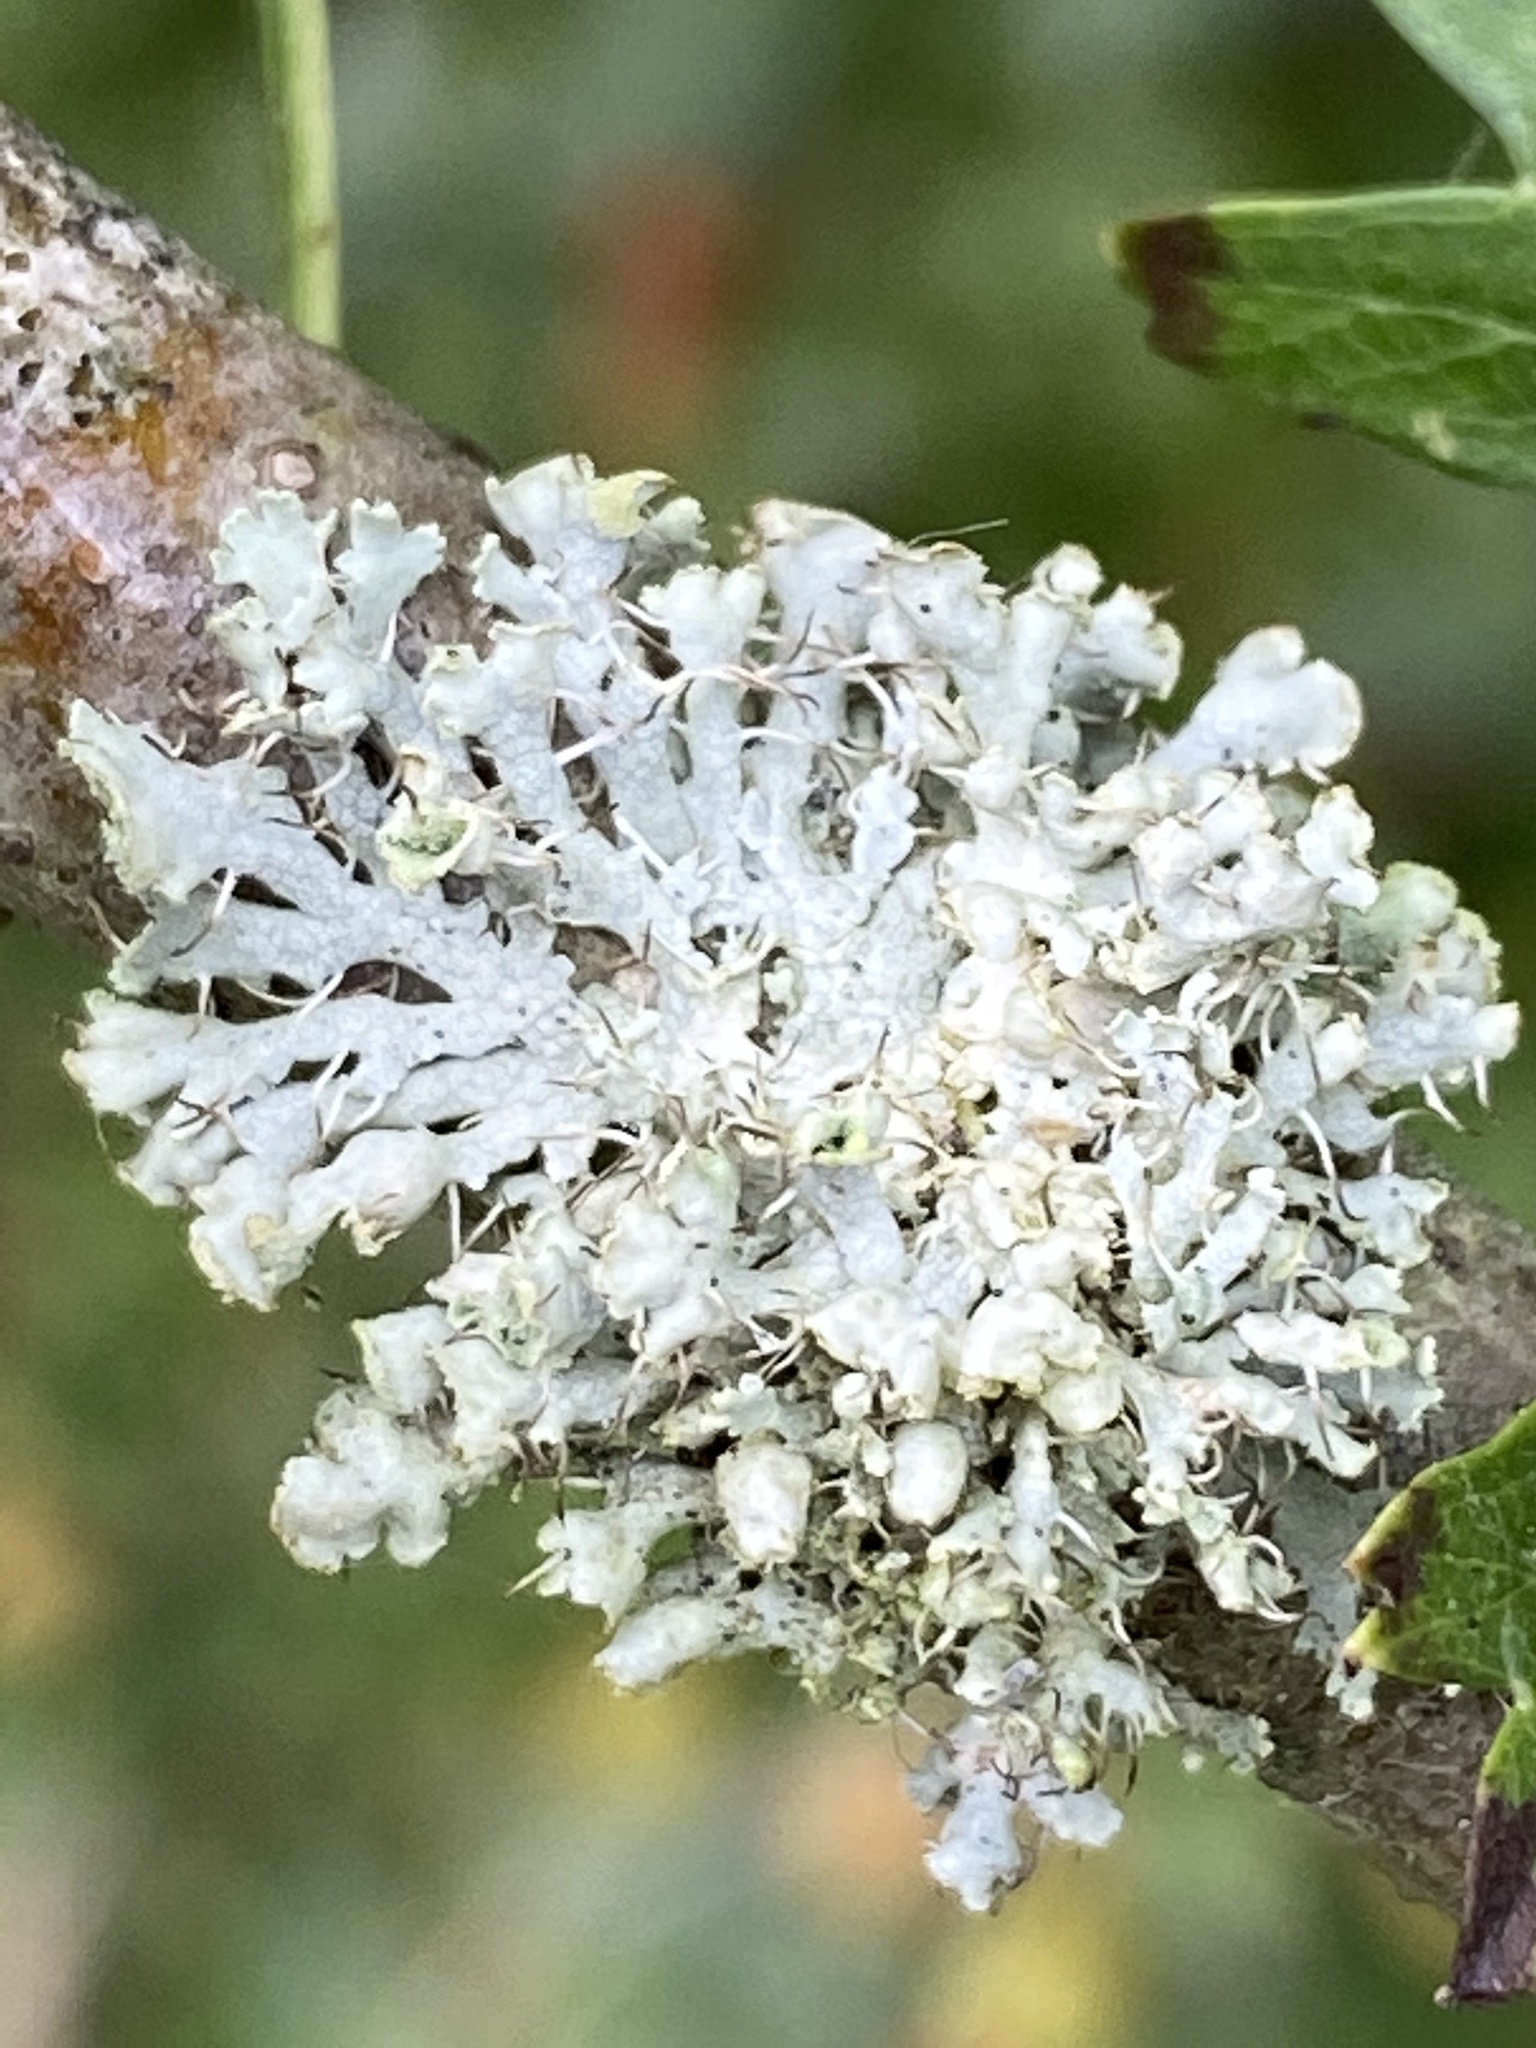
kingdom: Fungi
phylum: Ascomycota
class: Lecanoromycetes
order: Caliciales
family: Physciaceae
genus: Physcia
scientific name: Physcia adscendens
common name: Hooded rosette lichen
